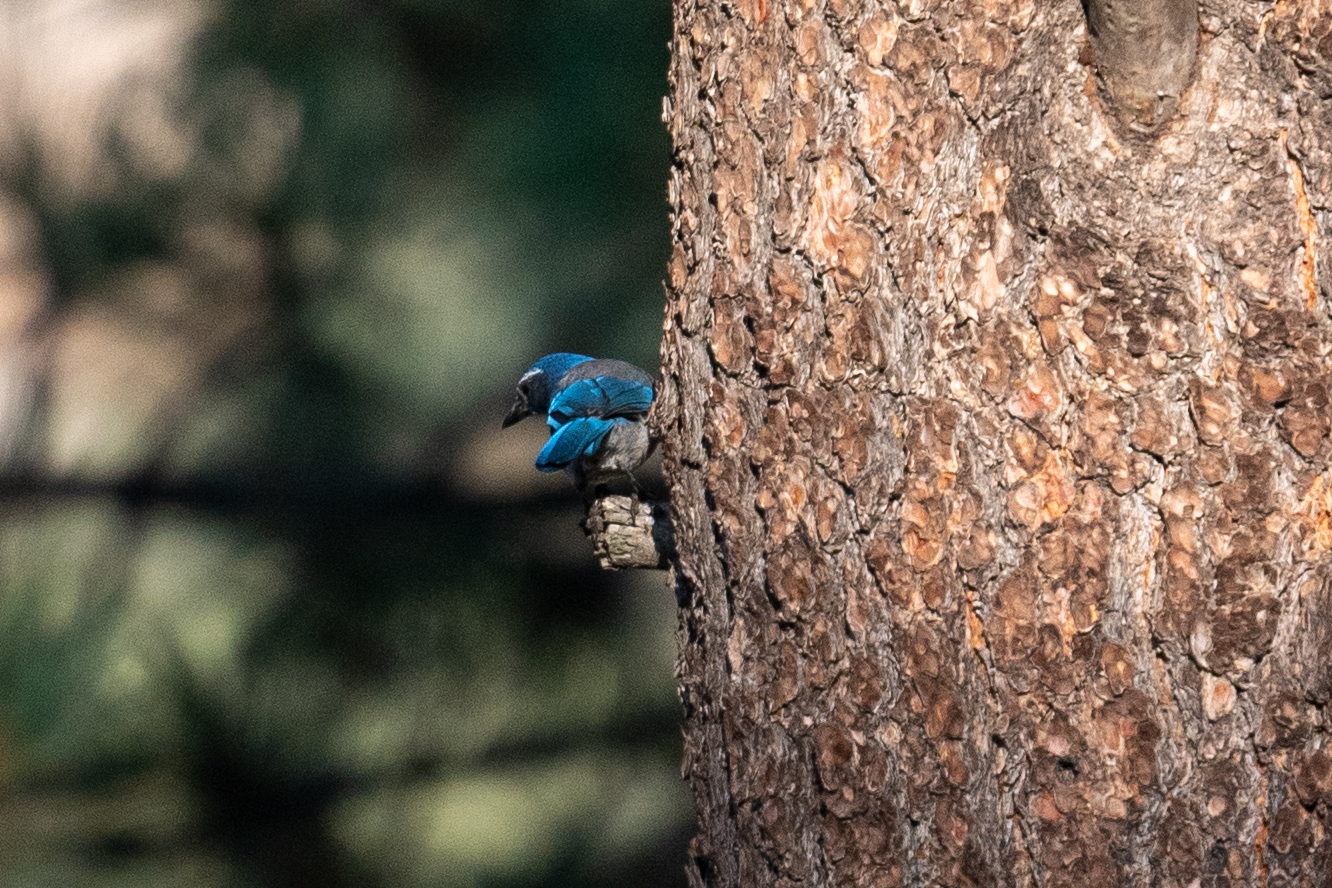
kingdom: Animalia
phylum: Chordata
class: Aves
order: Passeriformes
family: Corvidae
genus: Aphelocoma
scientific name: Aphelocoma californica
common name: California scrub-jay
